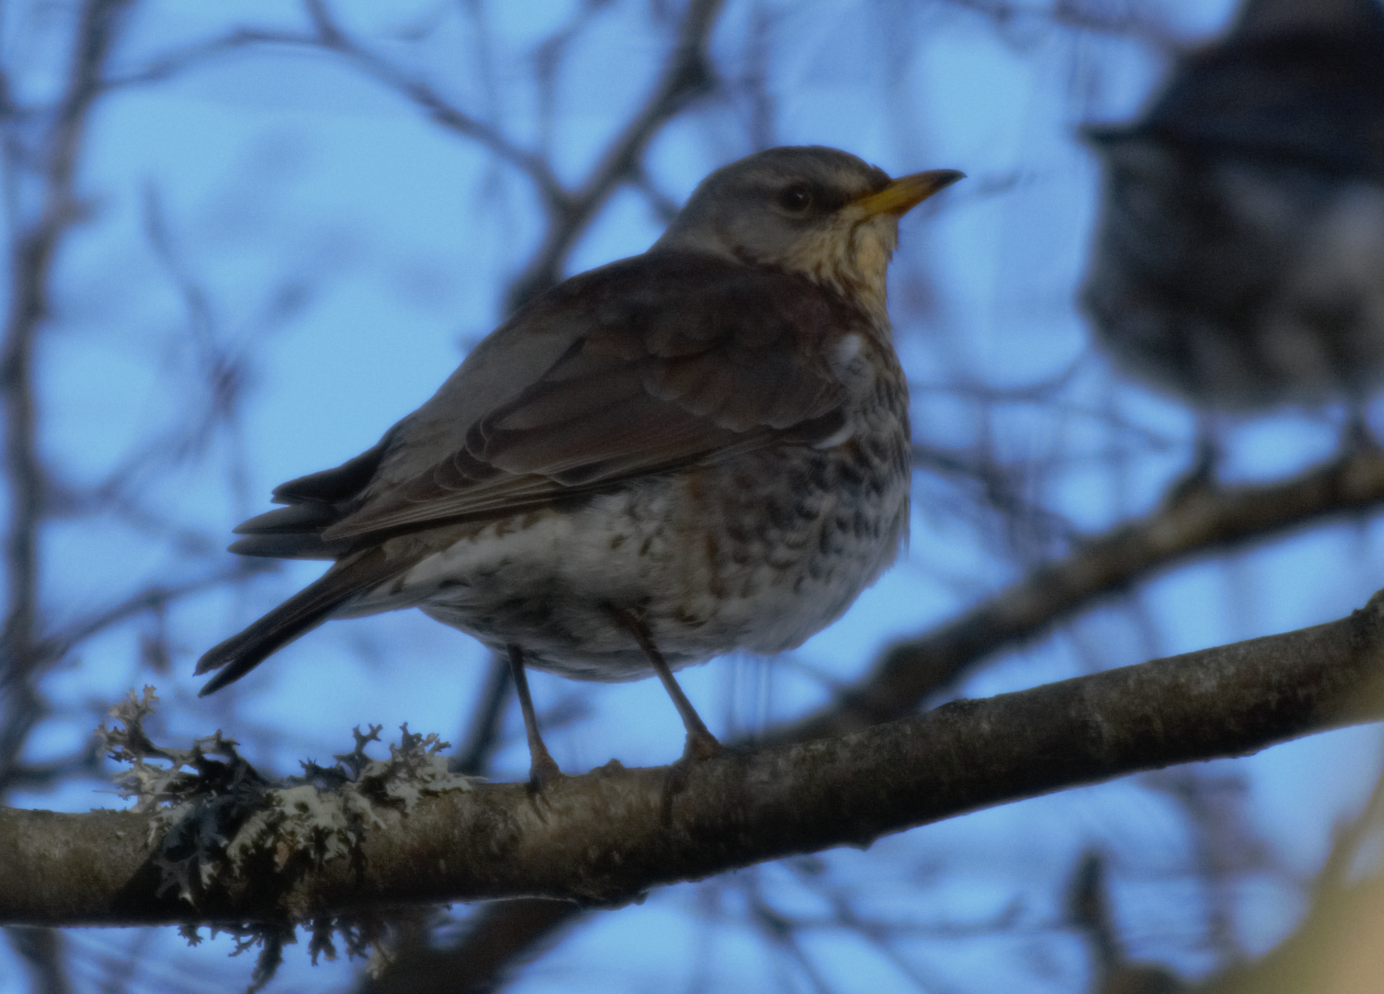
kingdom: Animalia
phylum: Chordata
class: Aves
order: Passeriformes
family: Turdidae
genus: Turdus
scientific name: Turdus pilaris
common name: Fieldfare
